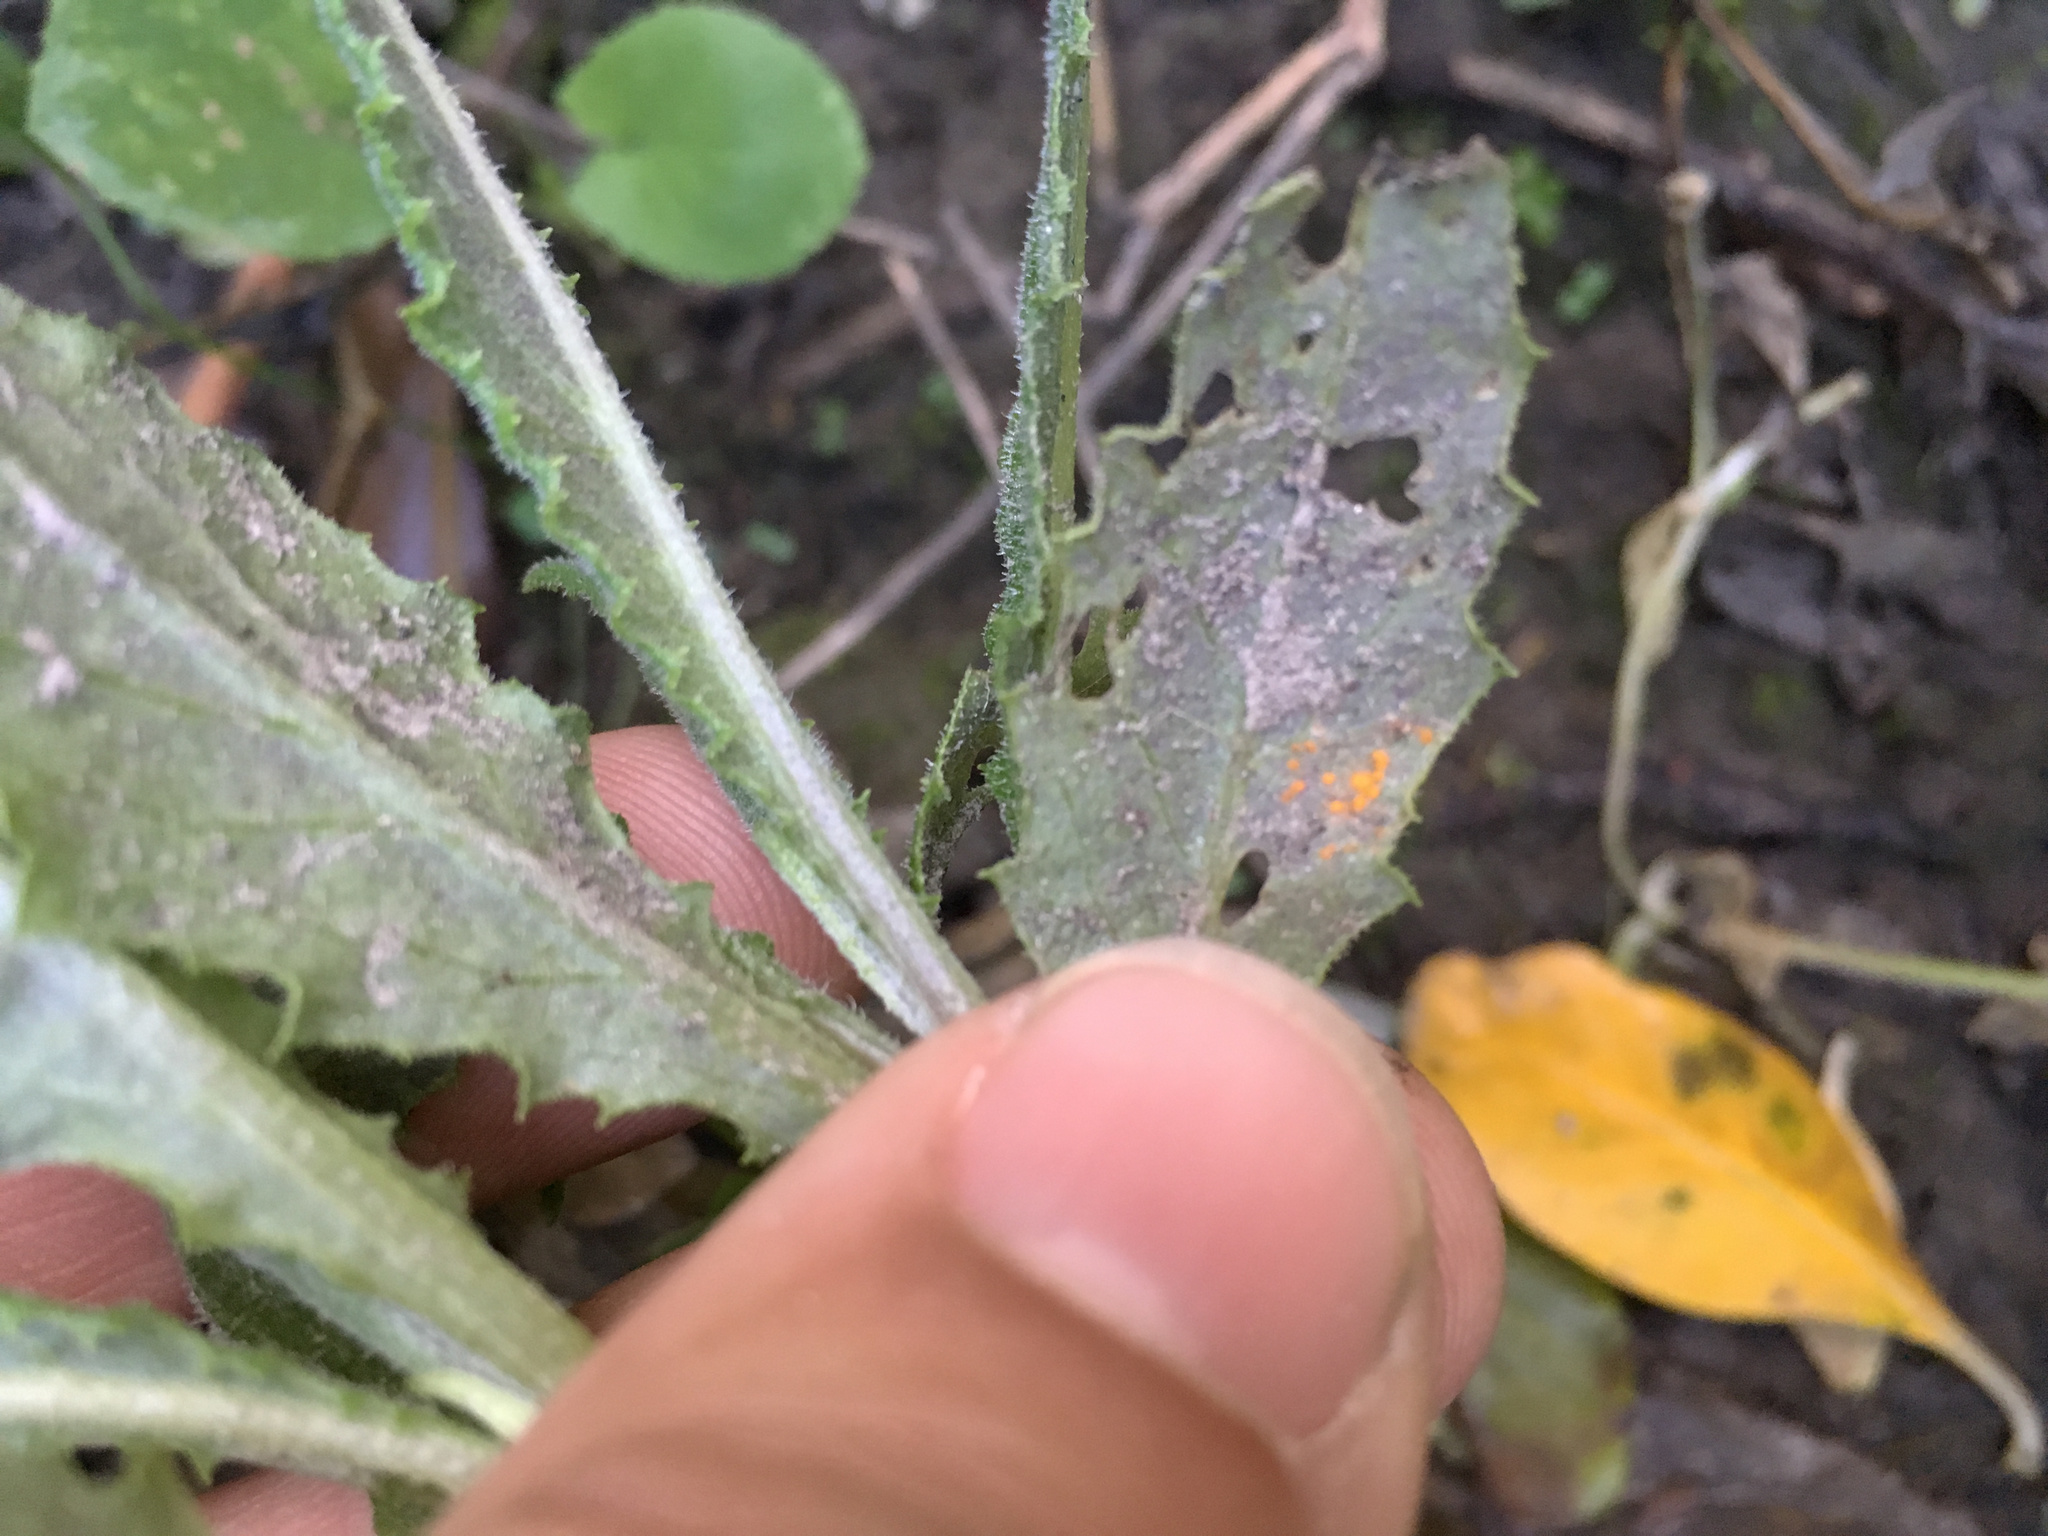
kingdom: Fungi
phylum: Basidiomycota
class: Pucciniomycetes
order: Pucciniales
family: Coleosporiaceae
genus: Coleosporium
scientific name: Coleosporium tussilaginis
